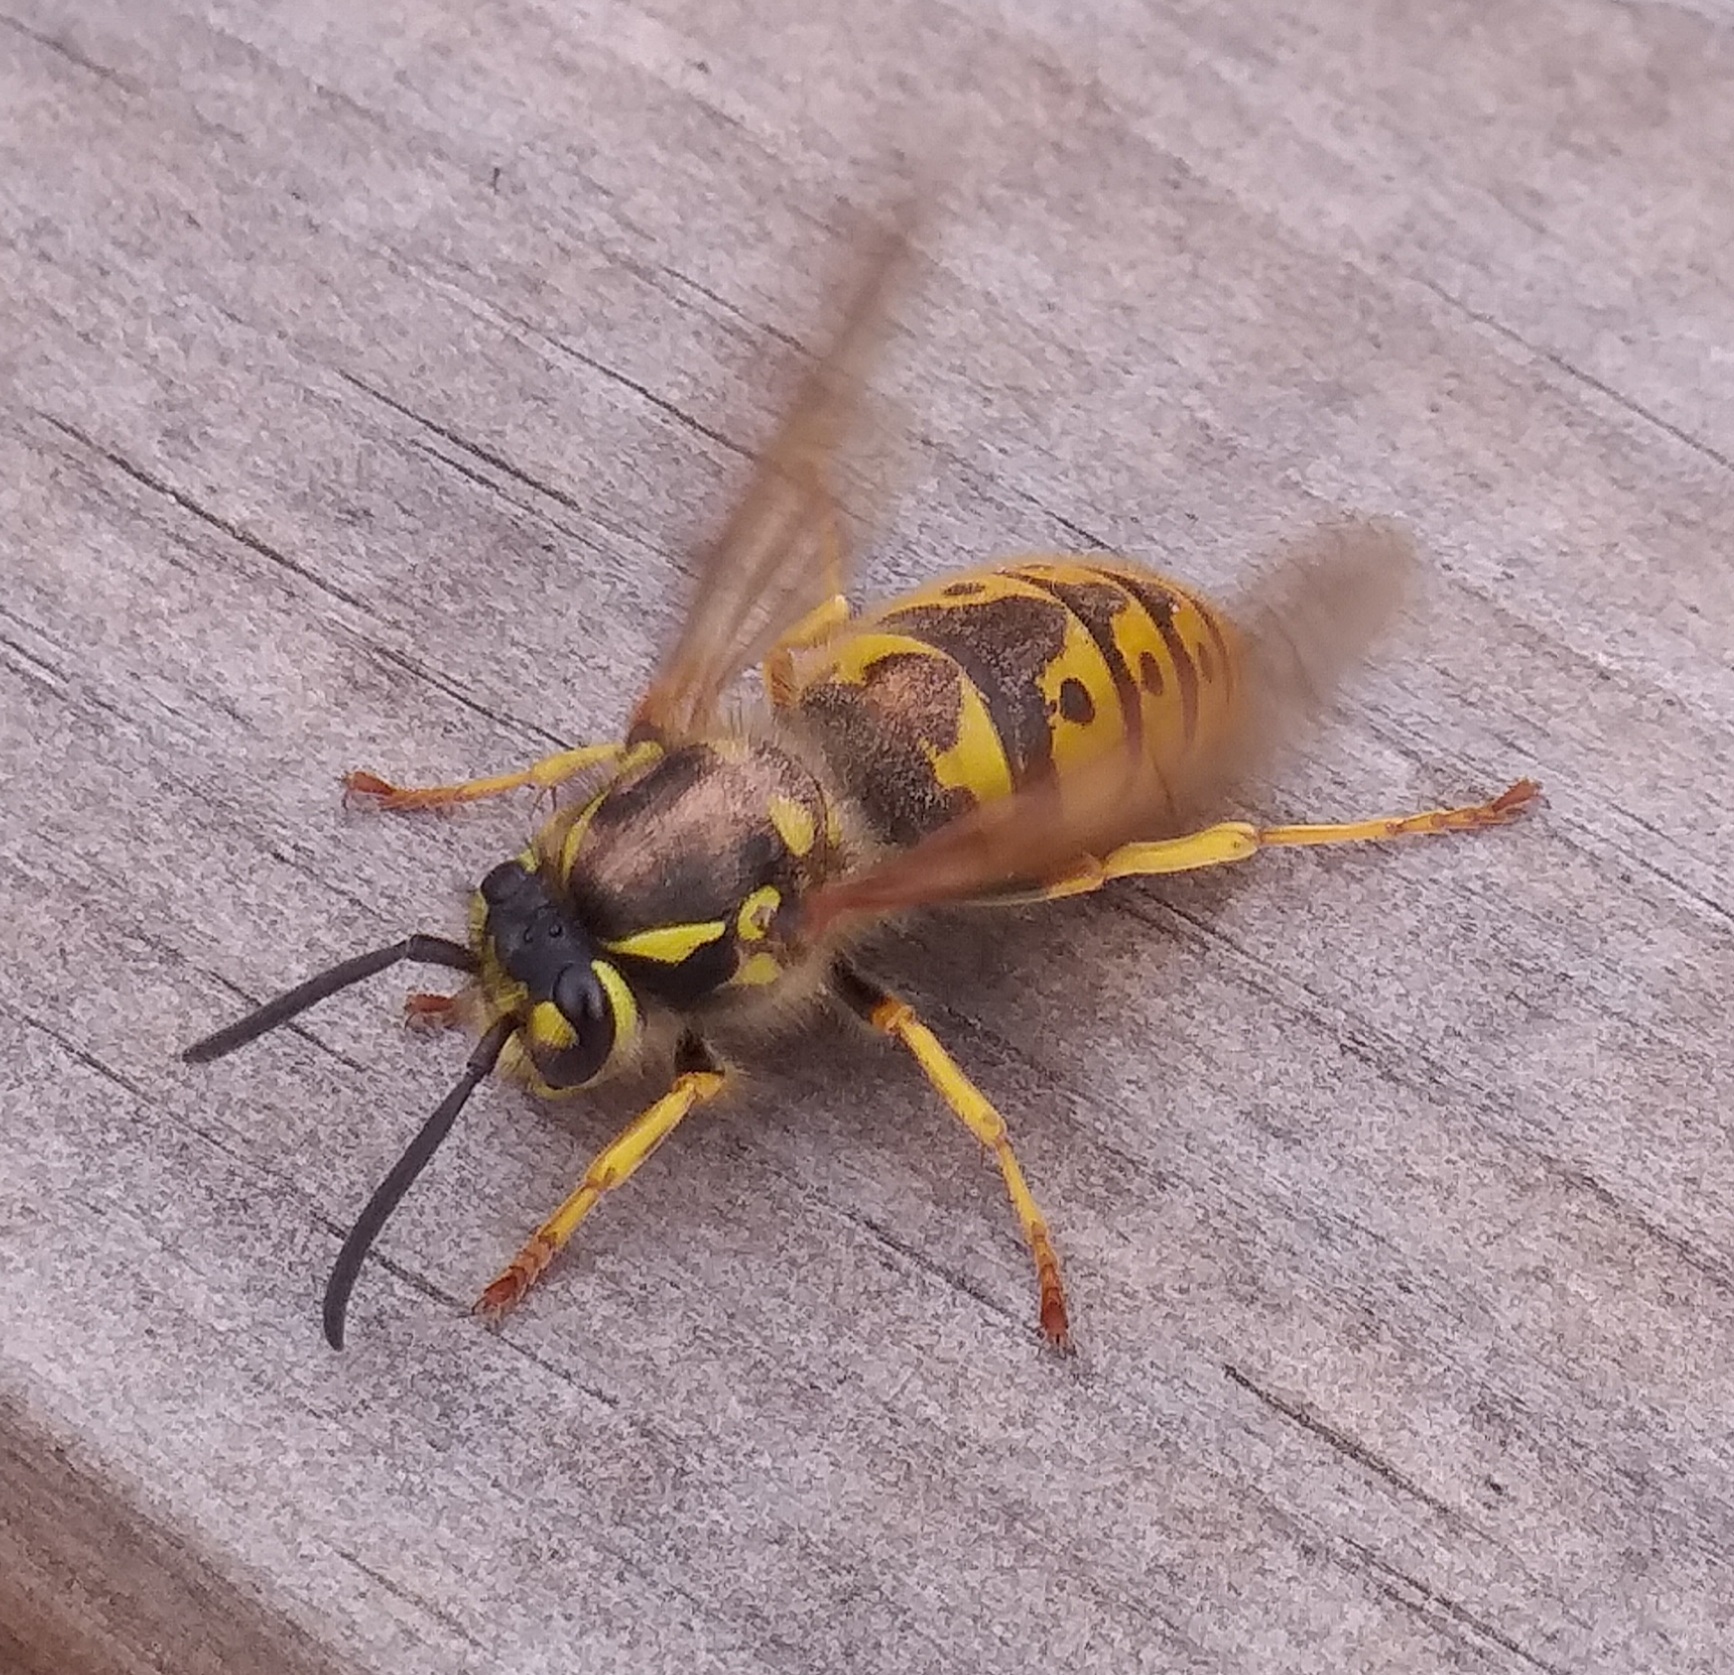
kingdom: Animalia
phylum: Arthropoda
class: Insecta
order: Hymenoptera
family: Vespidae
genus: Vespula
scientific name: Vespula germanica
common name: German wasp
